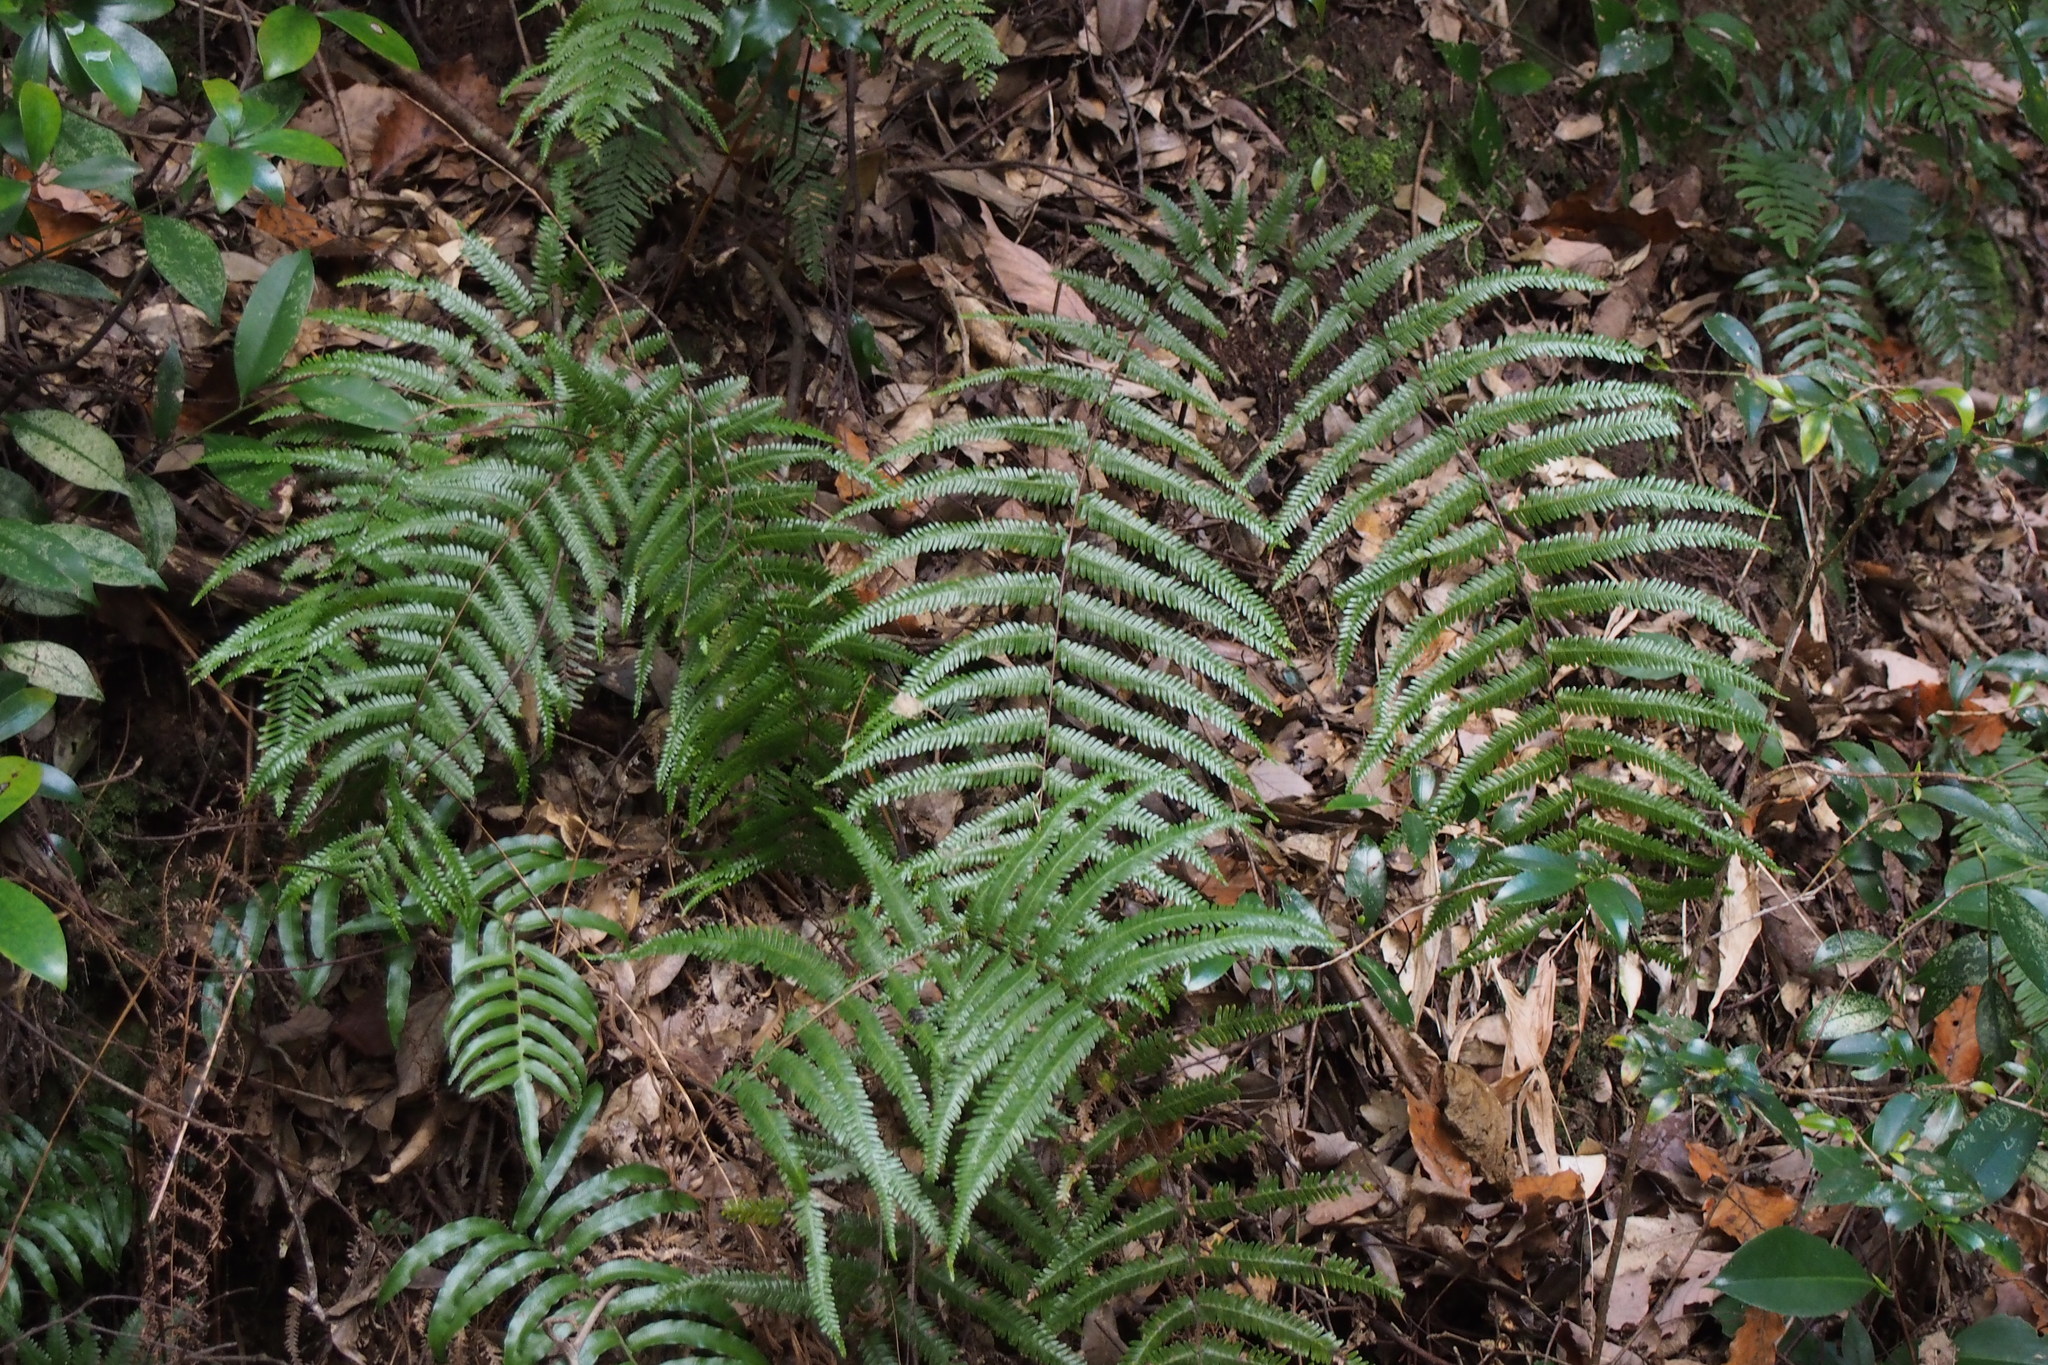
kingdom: Plantae
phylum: Tracheophyta
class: Polypodiopsida
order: Gleicheniales
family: Gleicheniaceae
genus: Diplopterygium
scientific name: Diplopterygium glaucum
